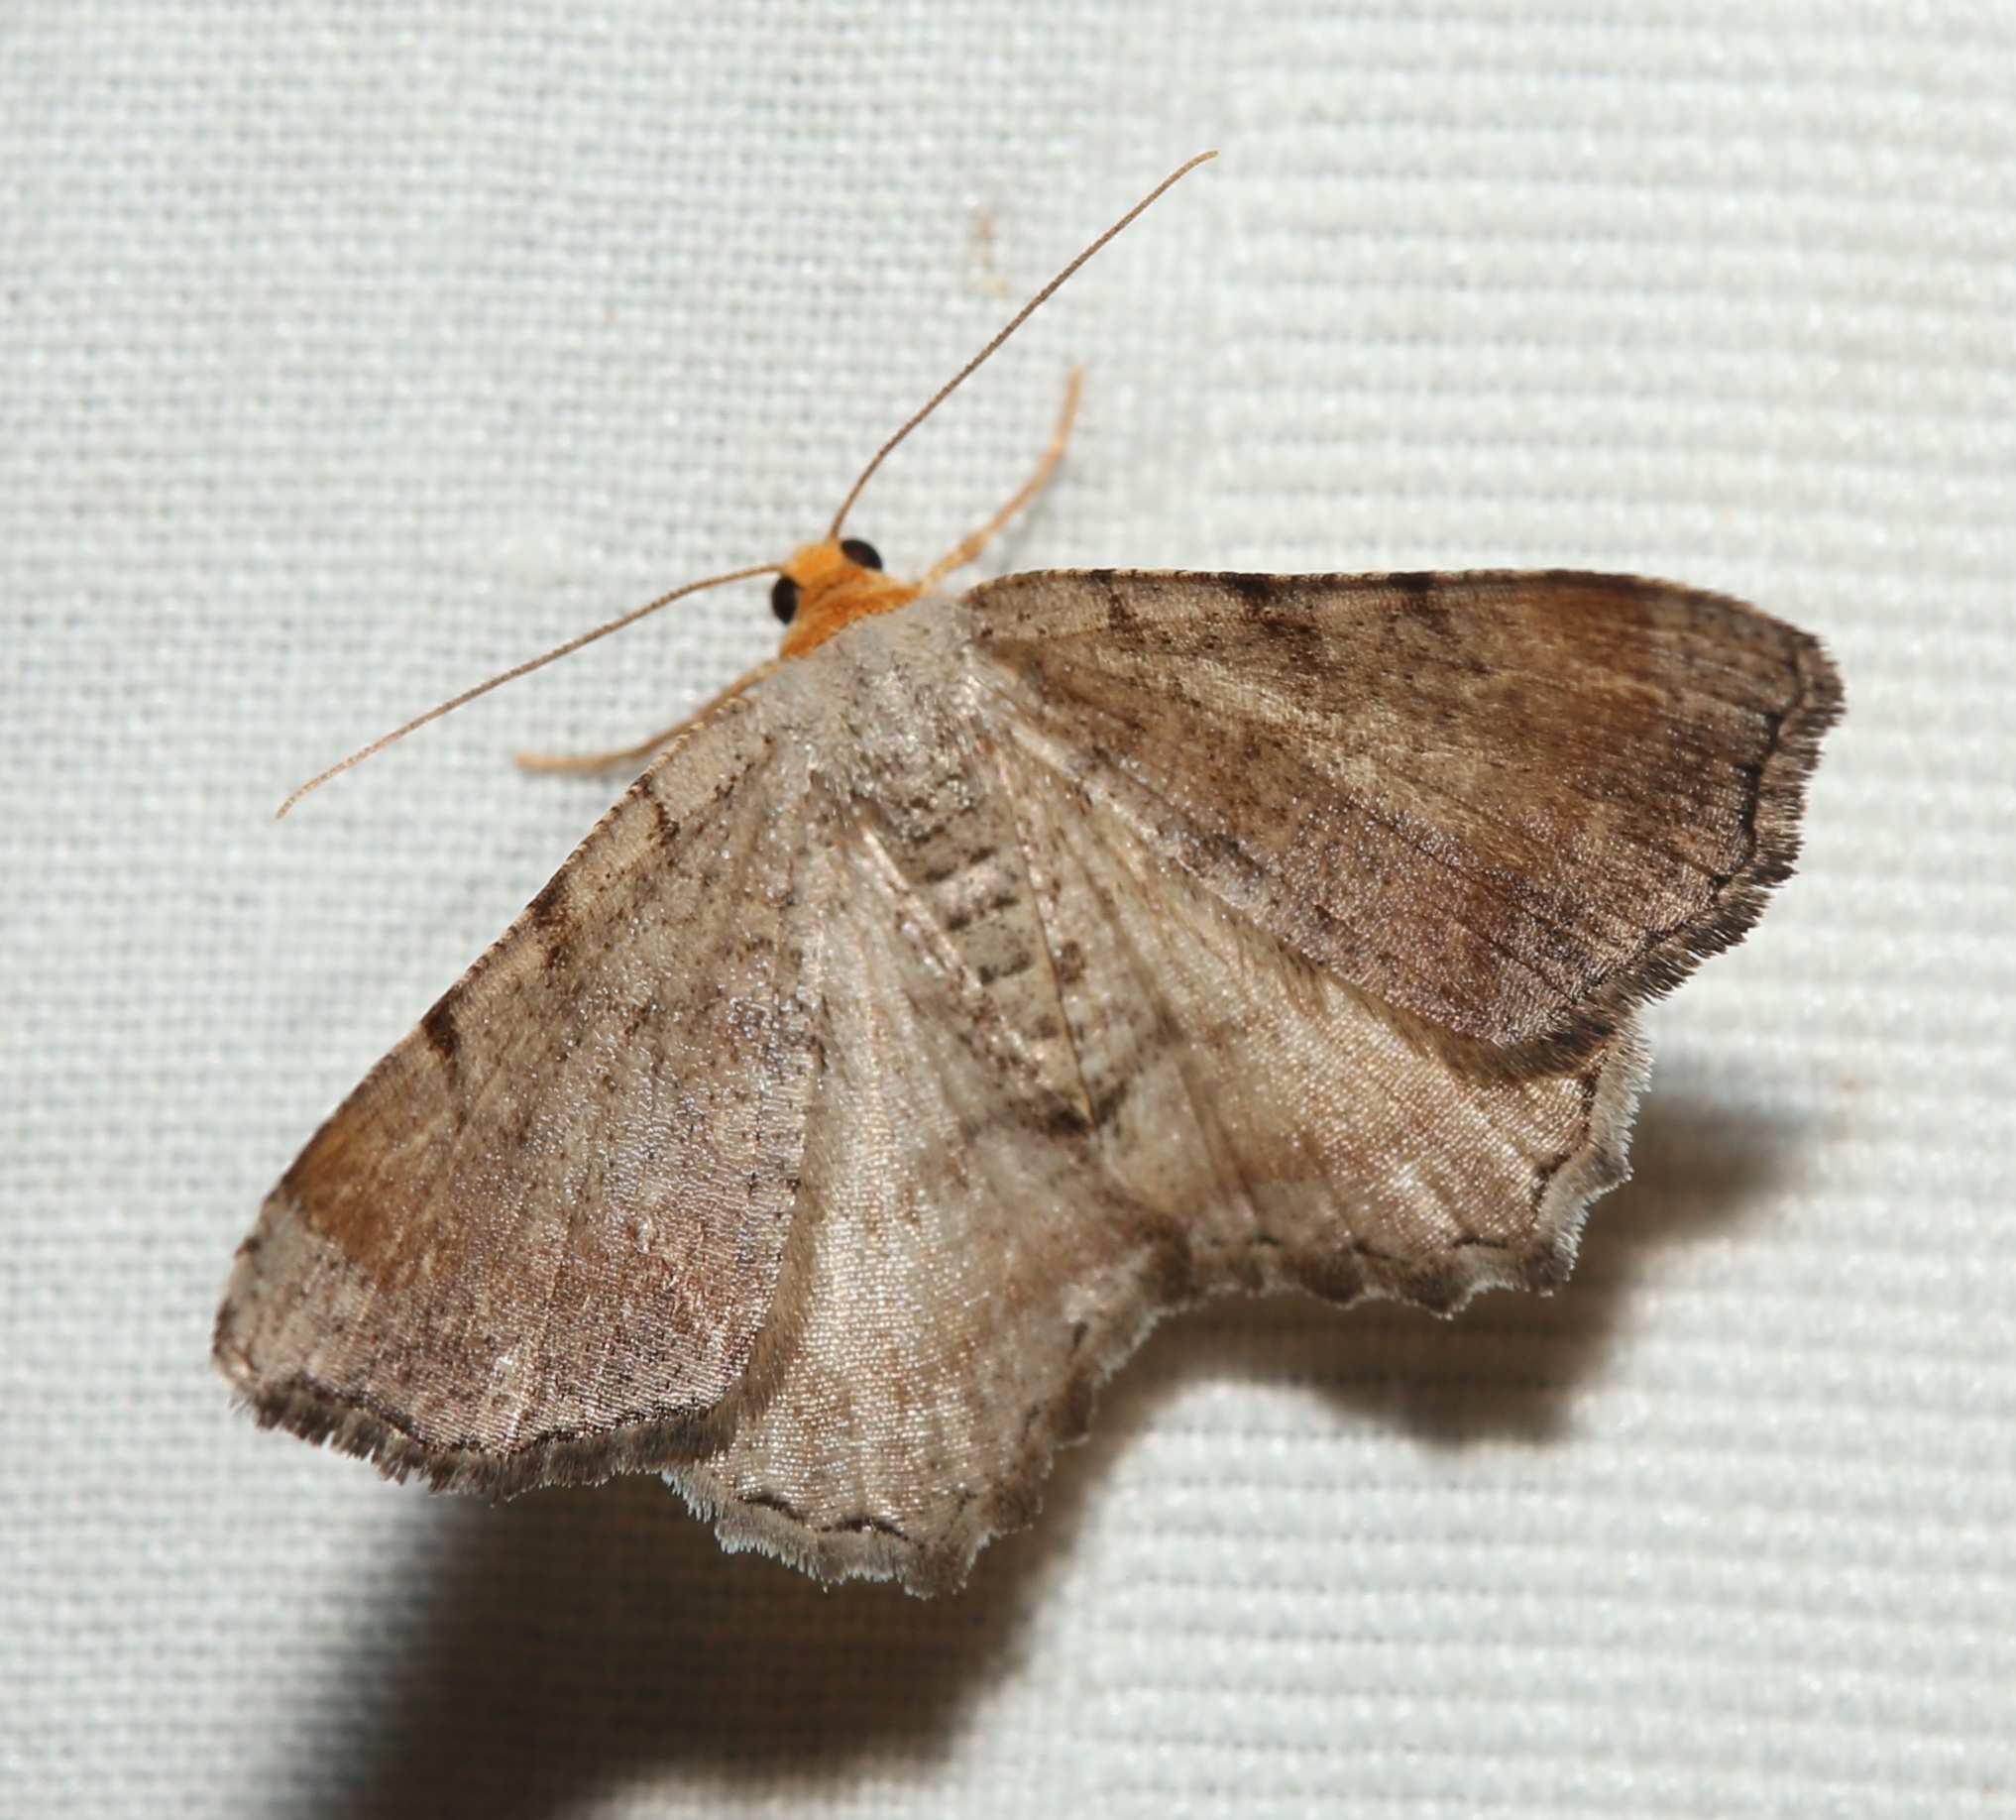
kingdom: Animalia
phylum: Arthropoda
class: Insecta
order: Lepidoptera
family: Geometridae
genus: Macaria
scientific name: Macaria minorata
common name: Minor angle moth
